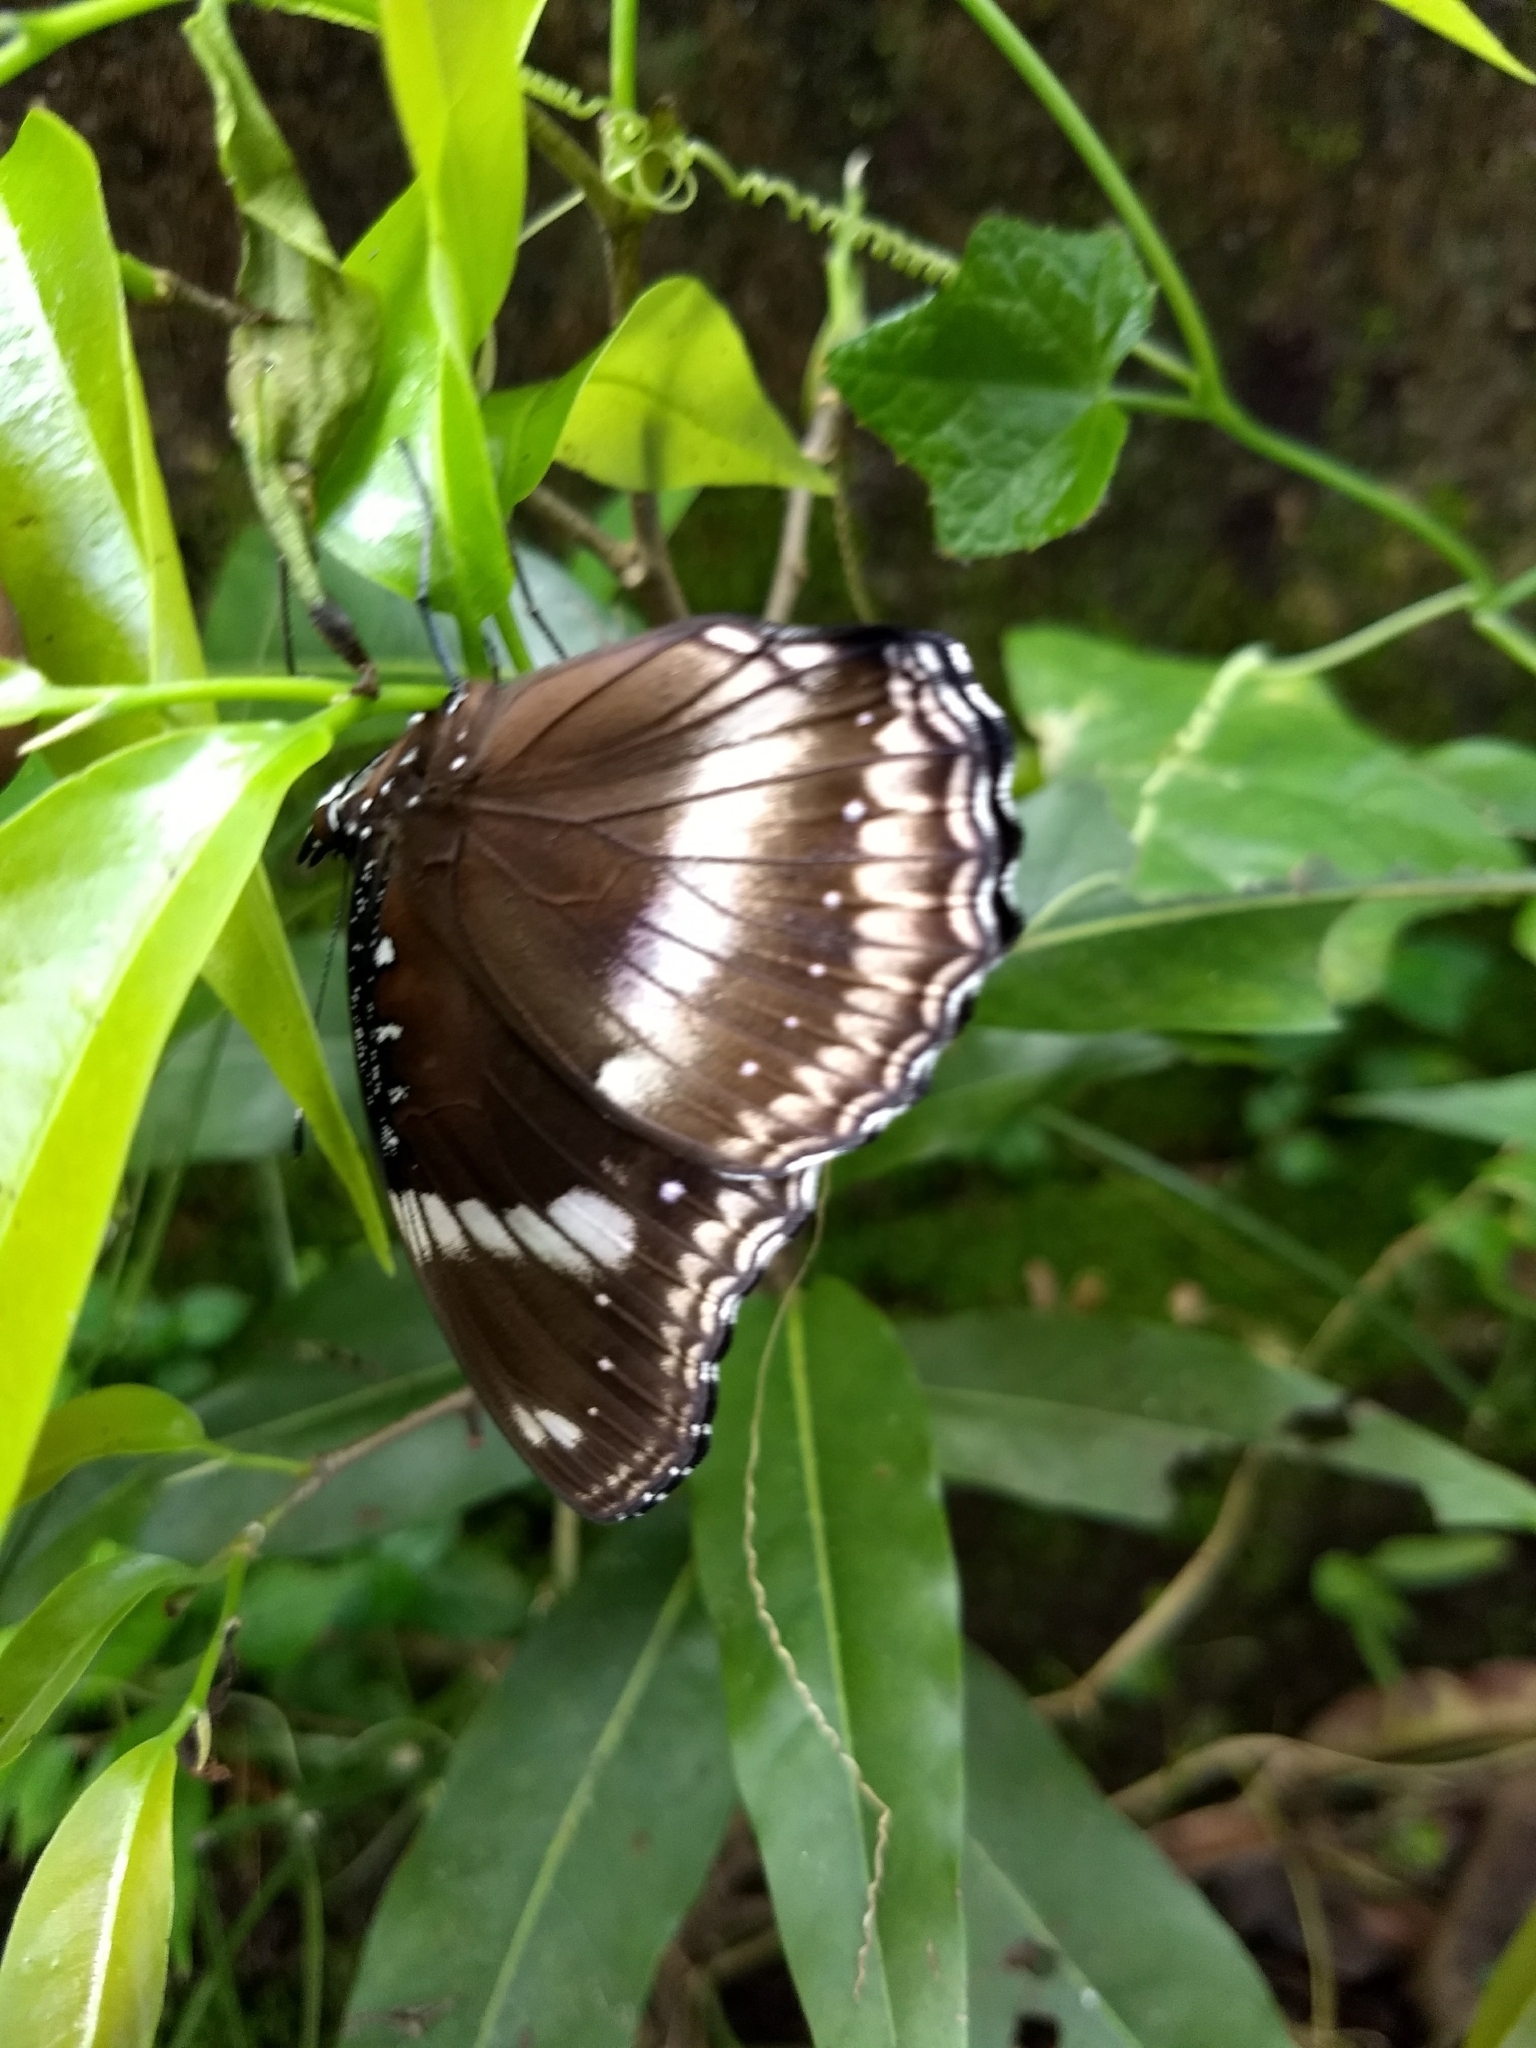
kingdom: Animalia
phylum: Arthropoda
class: Insecta
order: Lepidoptera
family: Nymphalidae
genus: Hypolimnas
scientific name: Hypolimnas bolina
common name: Great eggfly
